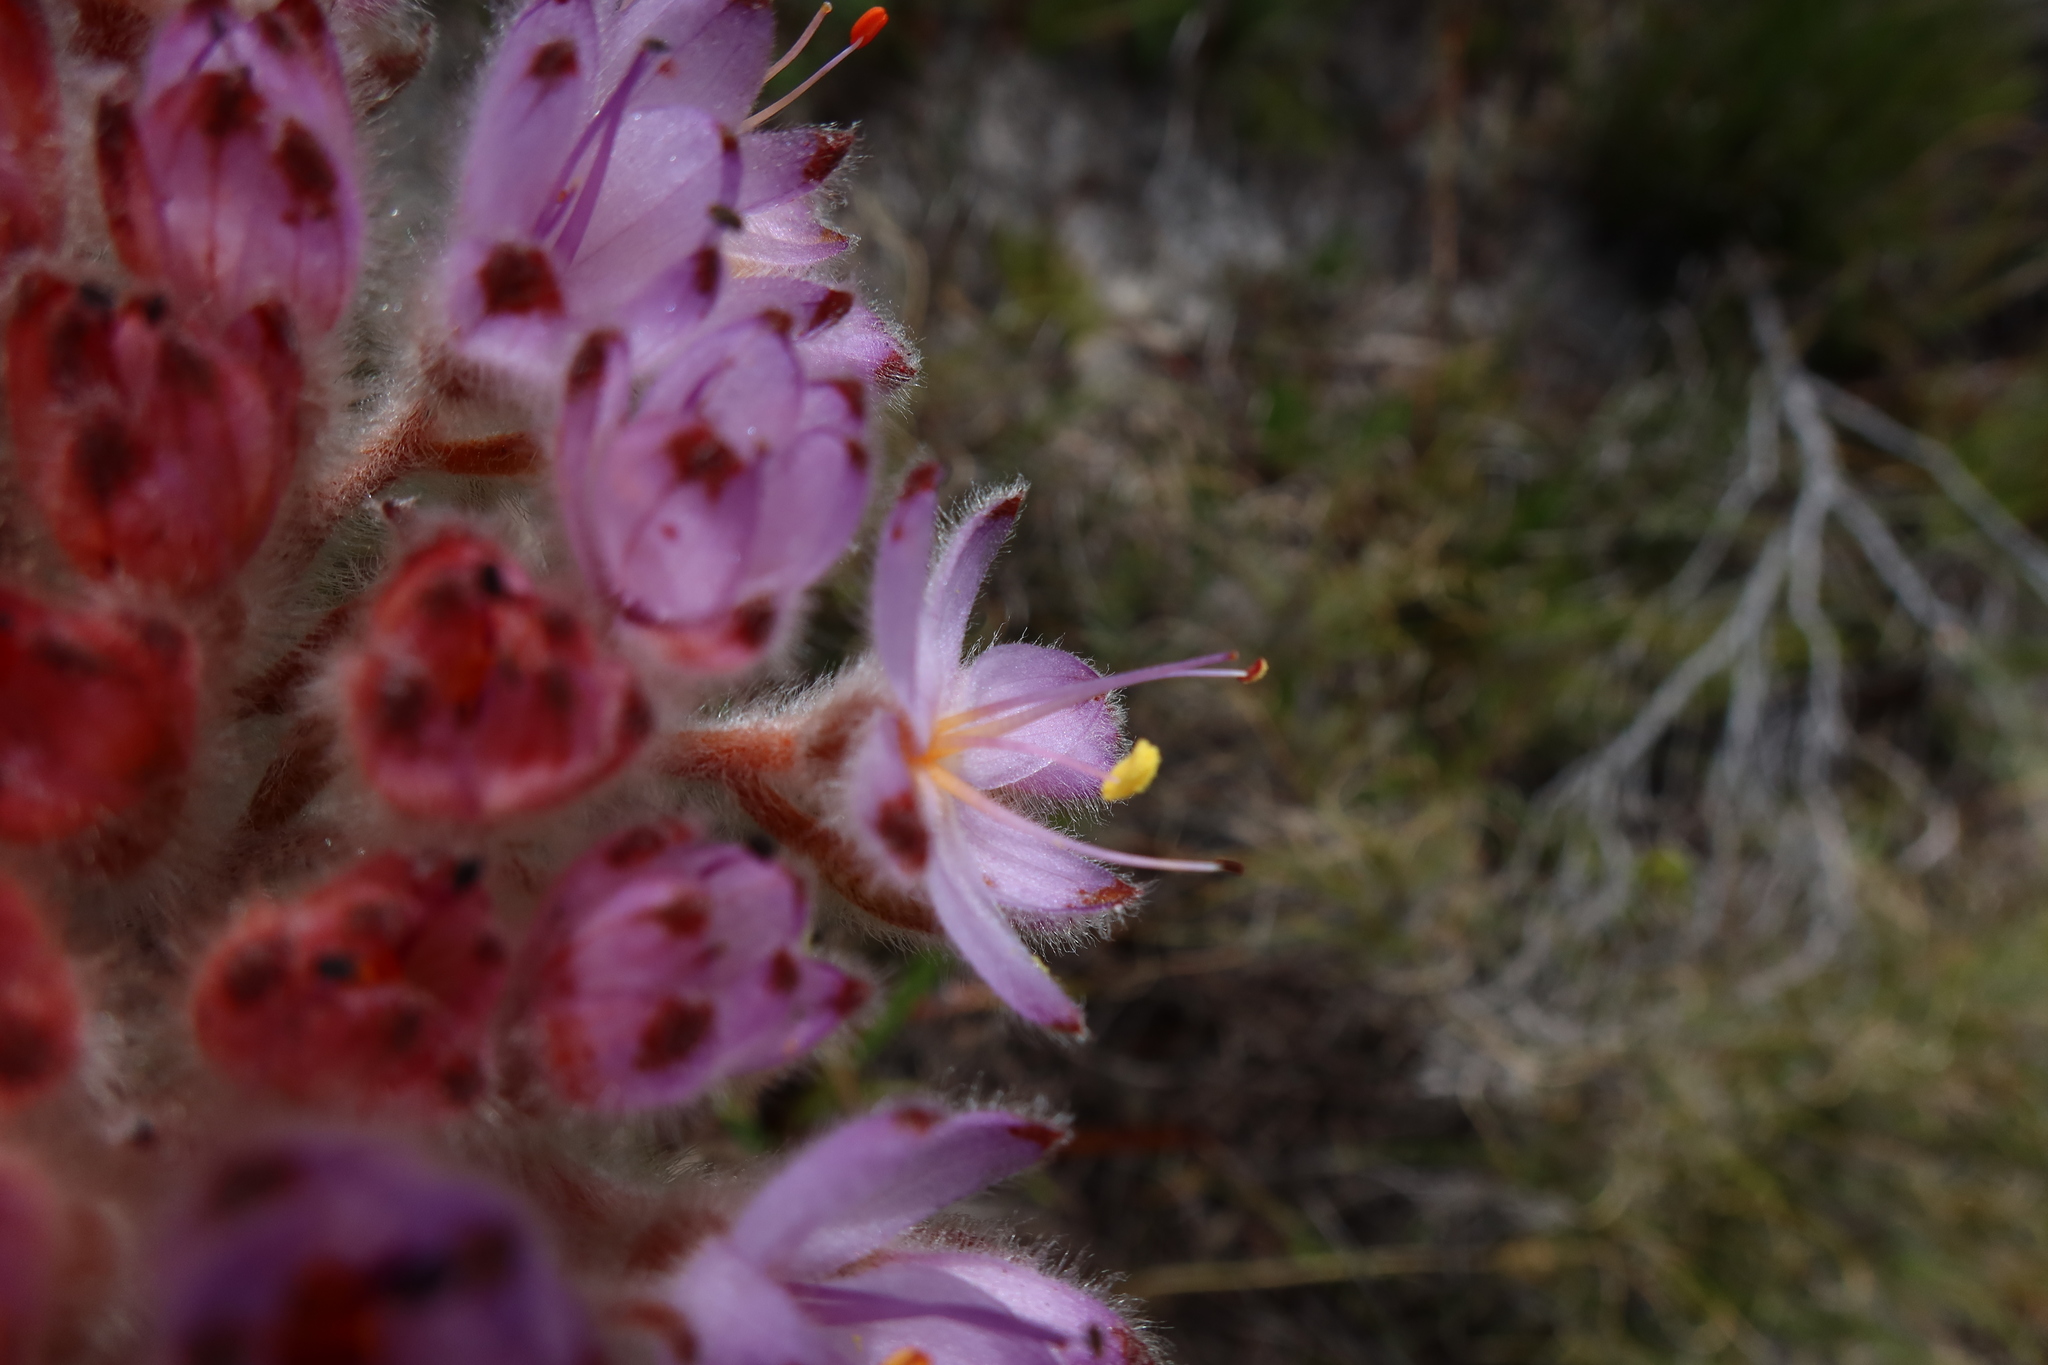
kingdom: Plantae
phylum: Tracheophyta
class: Liliopsida
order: Commelinales
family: Haemodoraceae
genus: Dilatris
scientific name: Dilatris corymbosa
